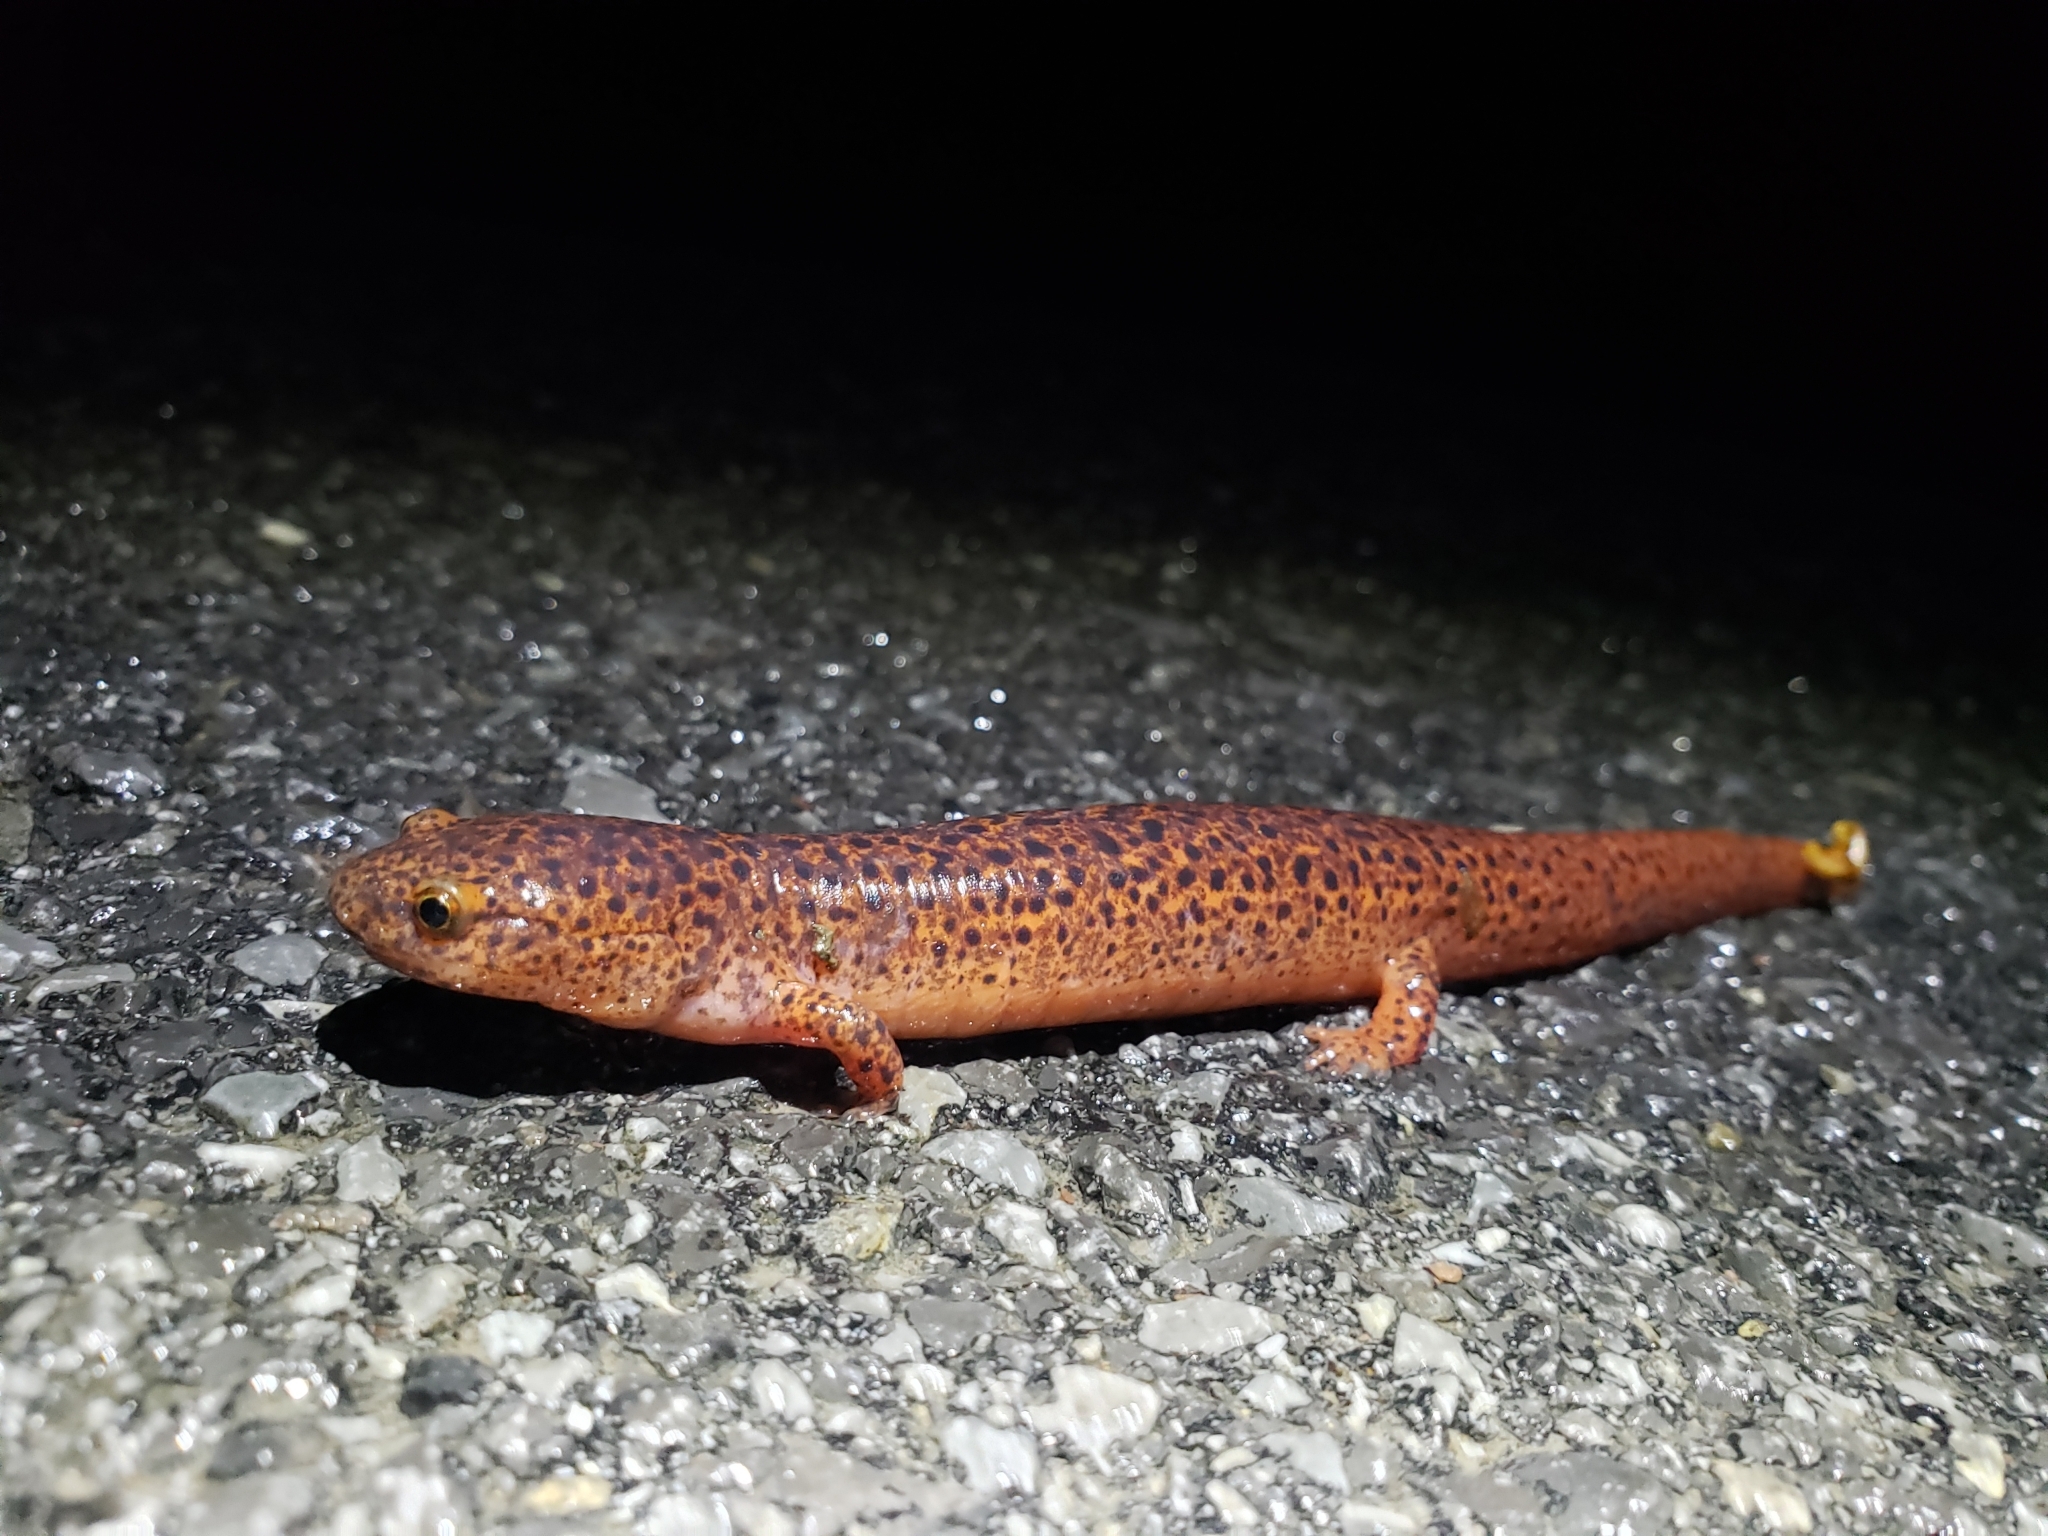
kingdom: Animalia
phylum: Chordata
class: Amphibia
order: Caudata
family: Plethodontidae
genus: Pseudotriton
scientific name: Pseudotriton ruber
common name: Red salamander
